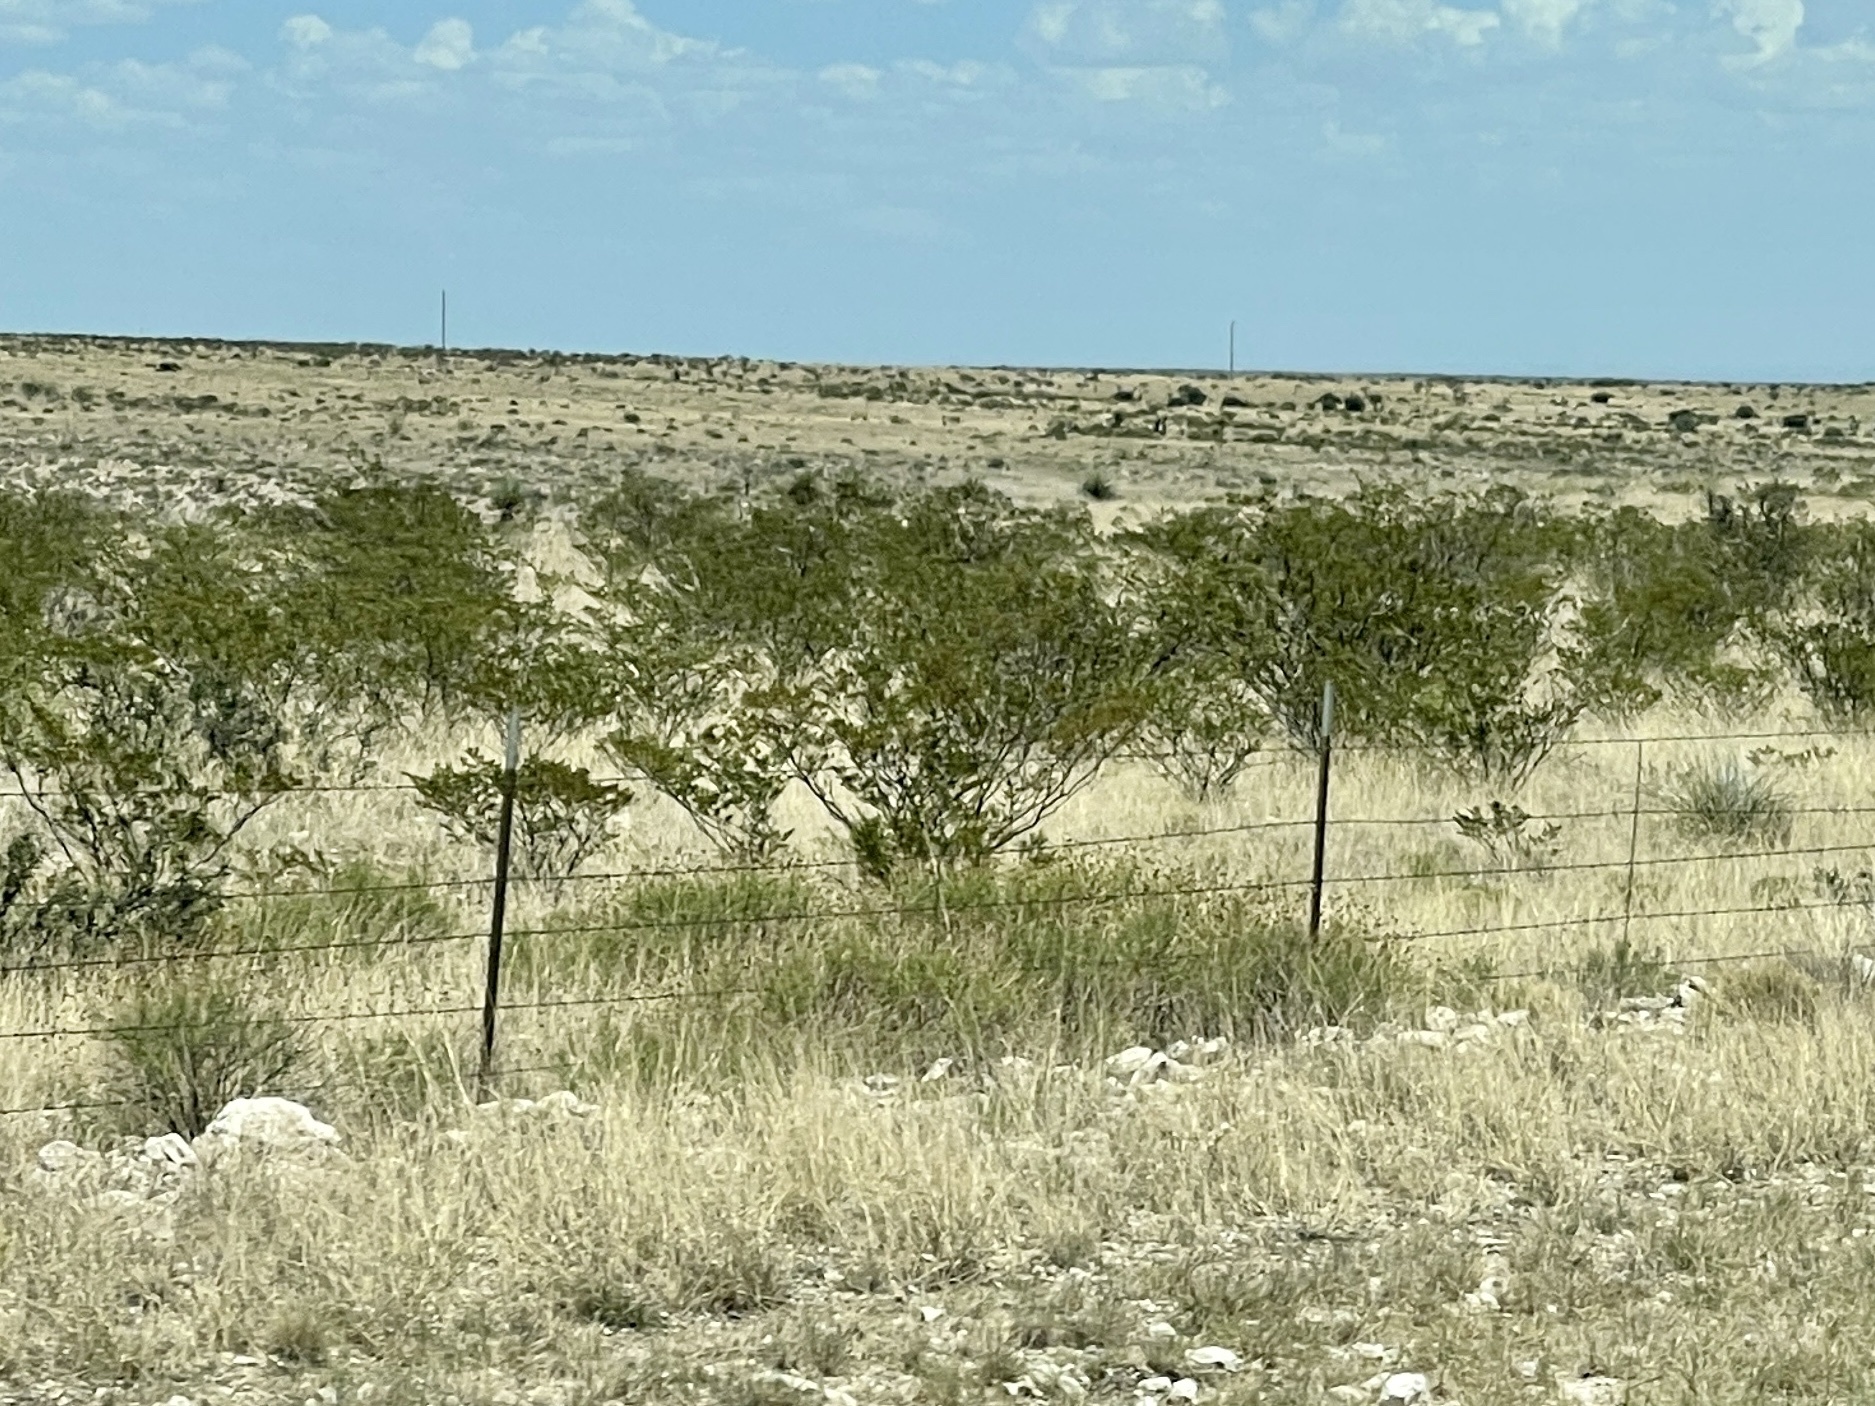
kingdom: Plantae
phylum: Tracheophyta
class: Magnoliopsida
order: Zygophyllales
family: Zygophyllaceae
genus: Larrea
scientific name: Larrea tridentata
